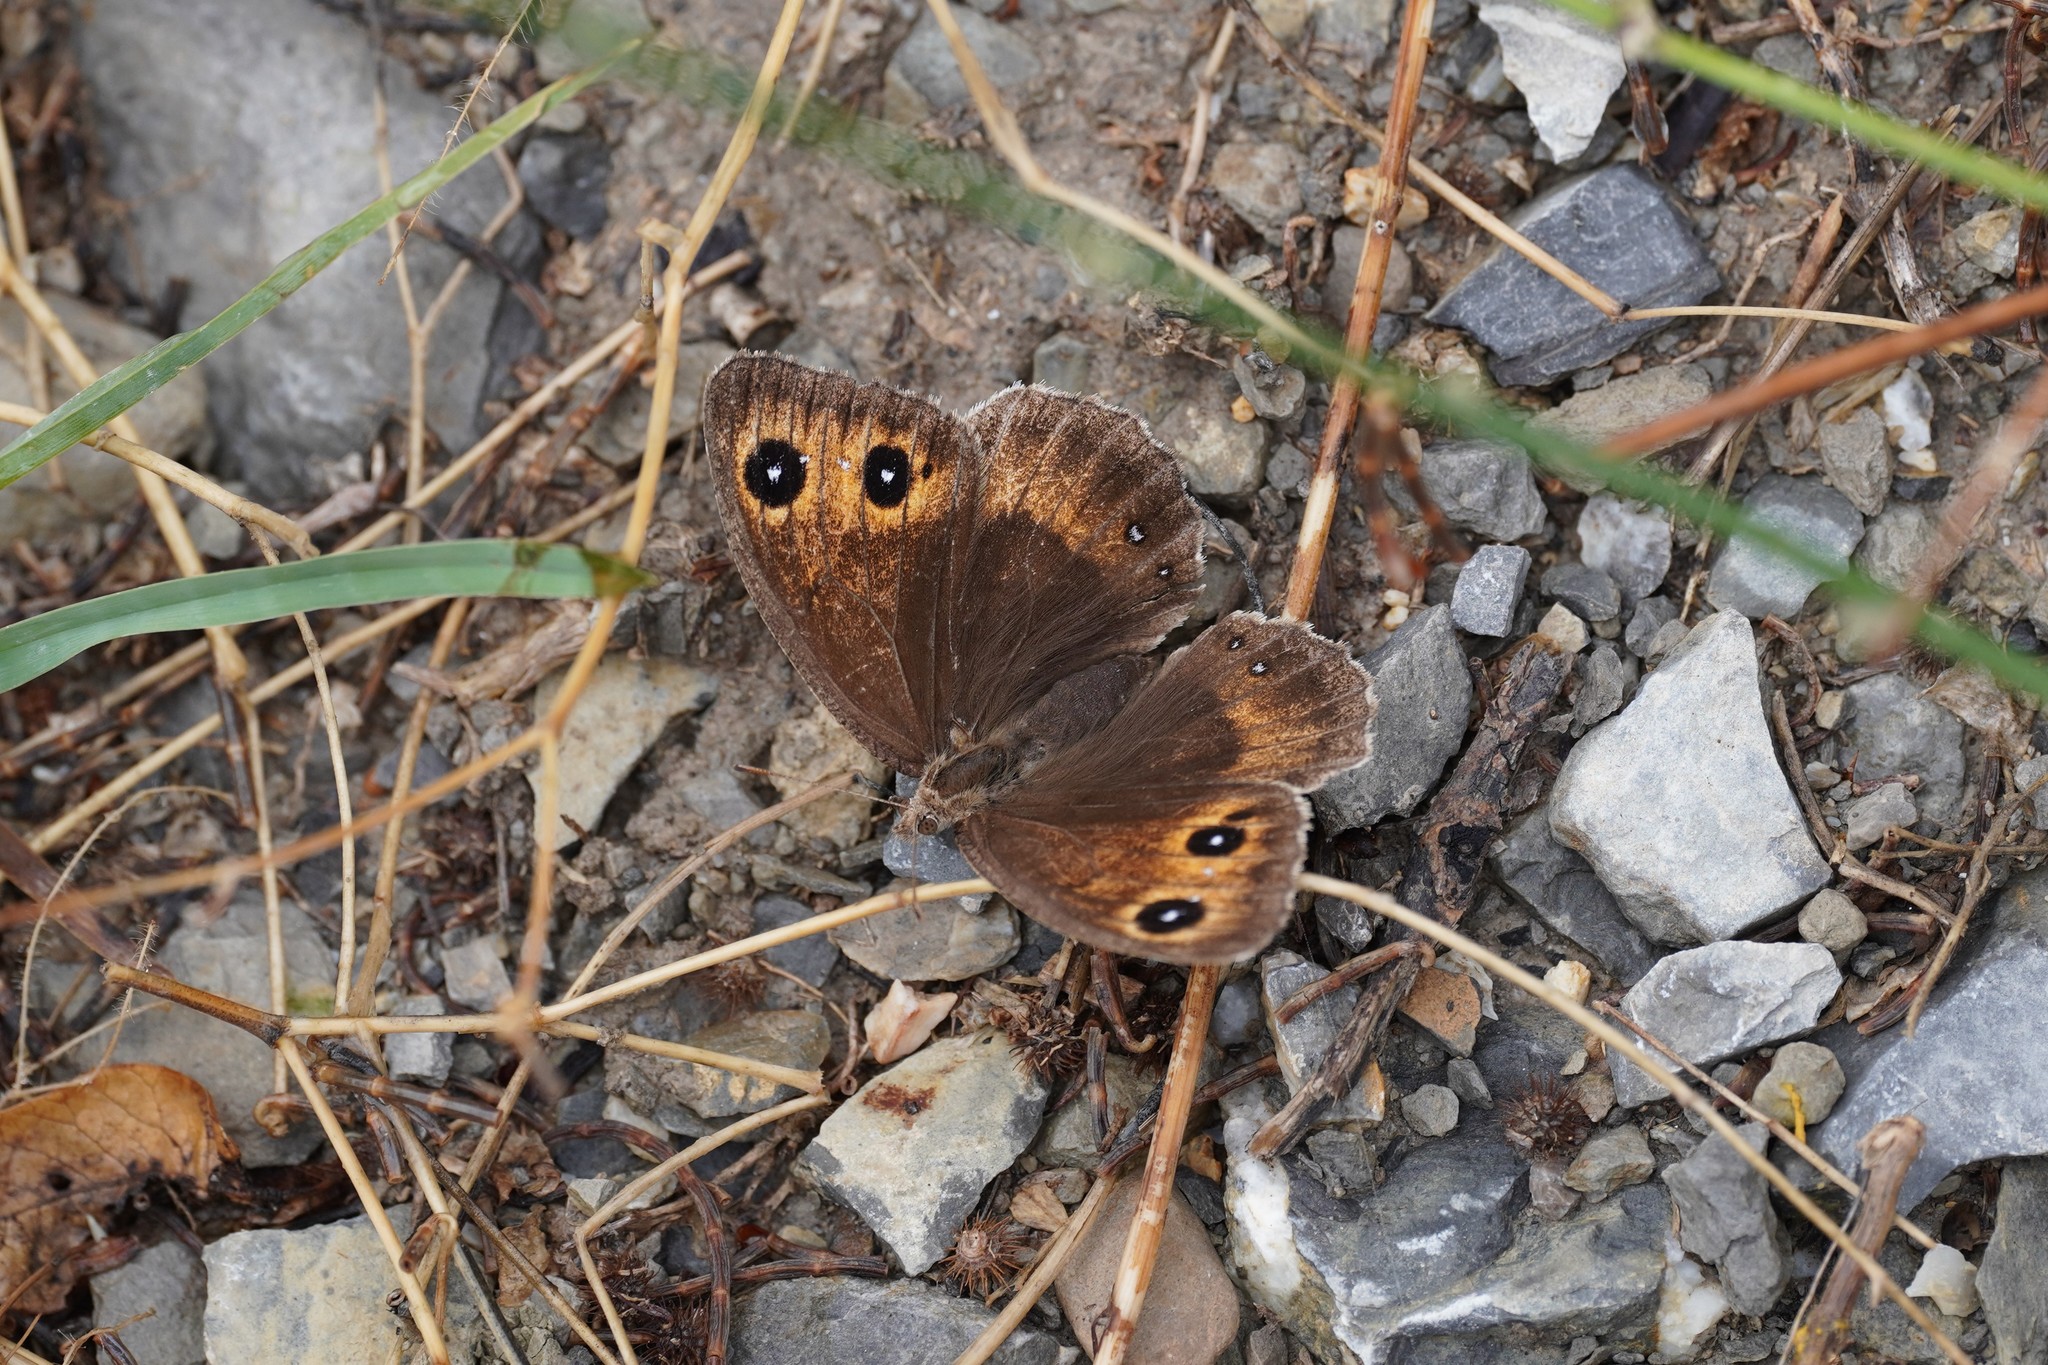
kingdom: Animalia
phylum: Arthropoda
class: Insecta
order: Lepidoptera
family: Nymphalidae
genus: Satyrus
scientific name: Satyrus ferula
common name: Great sooty satyr
